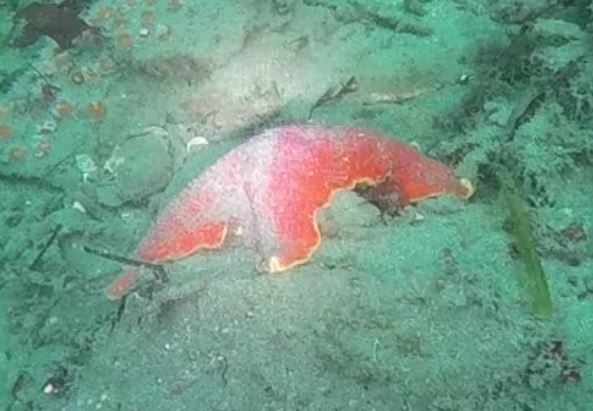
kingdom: Animalia
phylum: Echinodermata
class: Asteroidea
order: Valvatida
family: Asterinidae
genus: Patiria
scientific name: Patiria miniata
